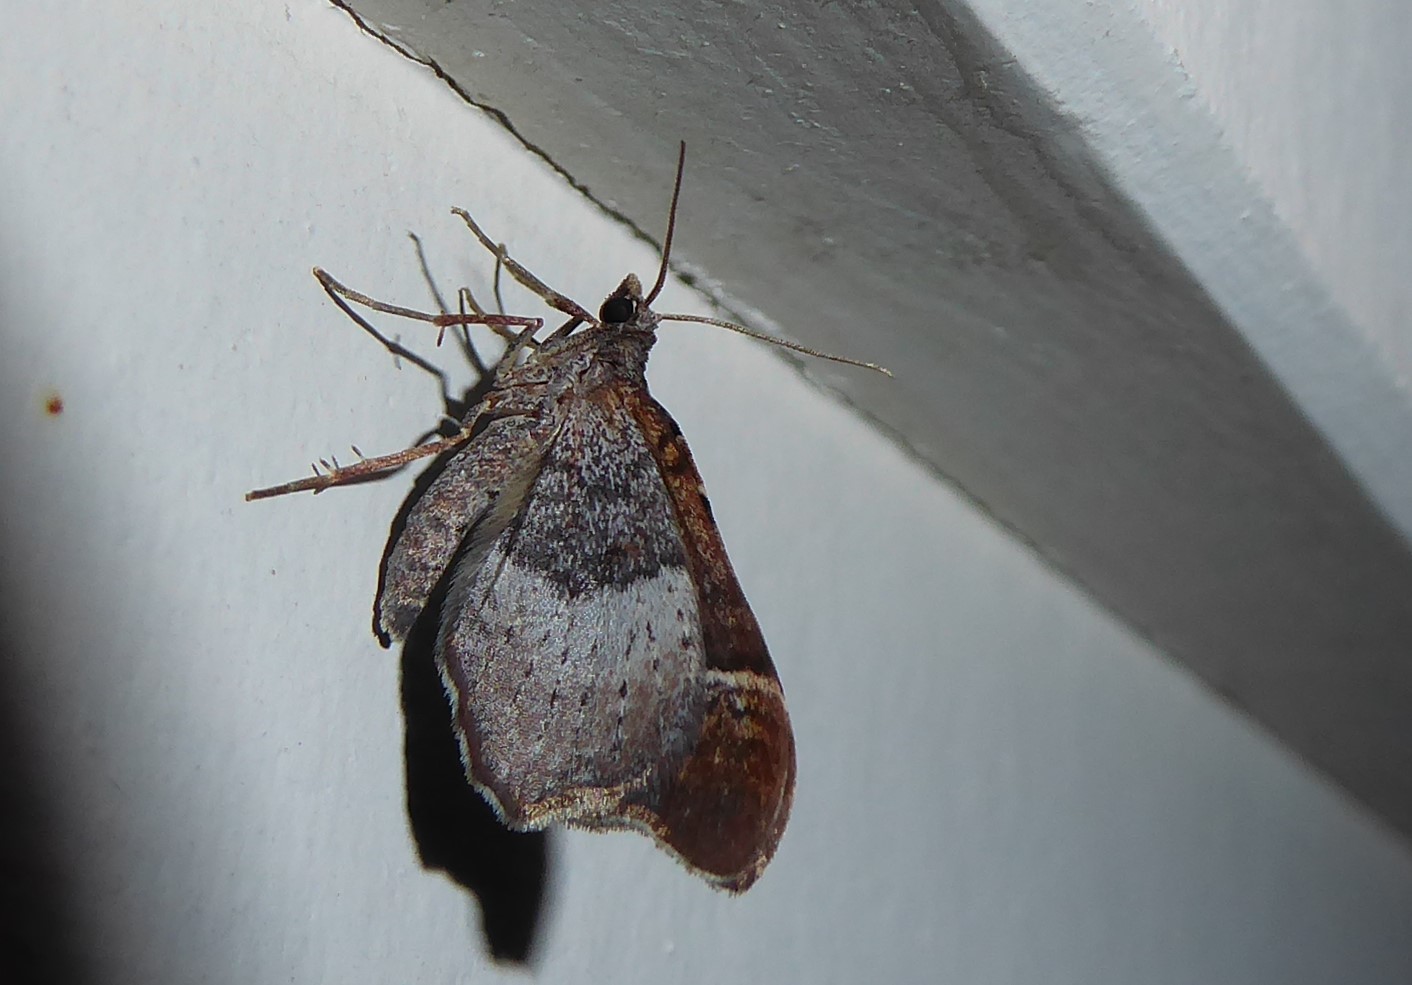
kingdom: Animalia
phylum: Arthropoda
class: Insecta
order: Lepidoptera
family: Geometridae
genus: Helastia
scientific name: Helastia triphragma
